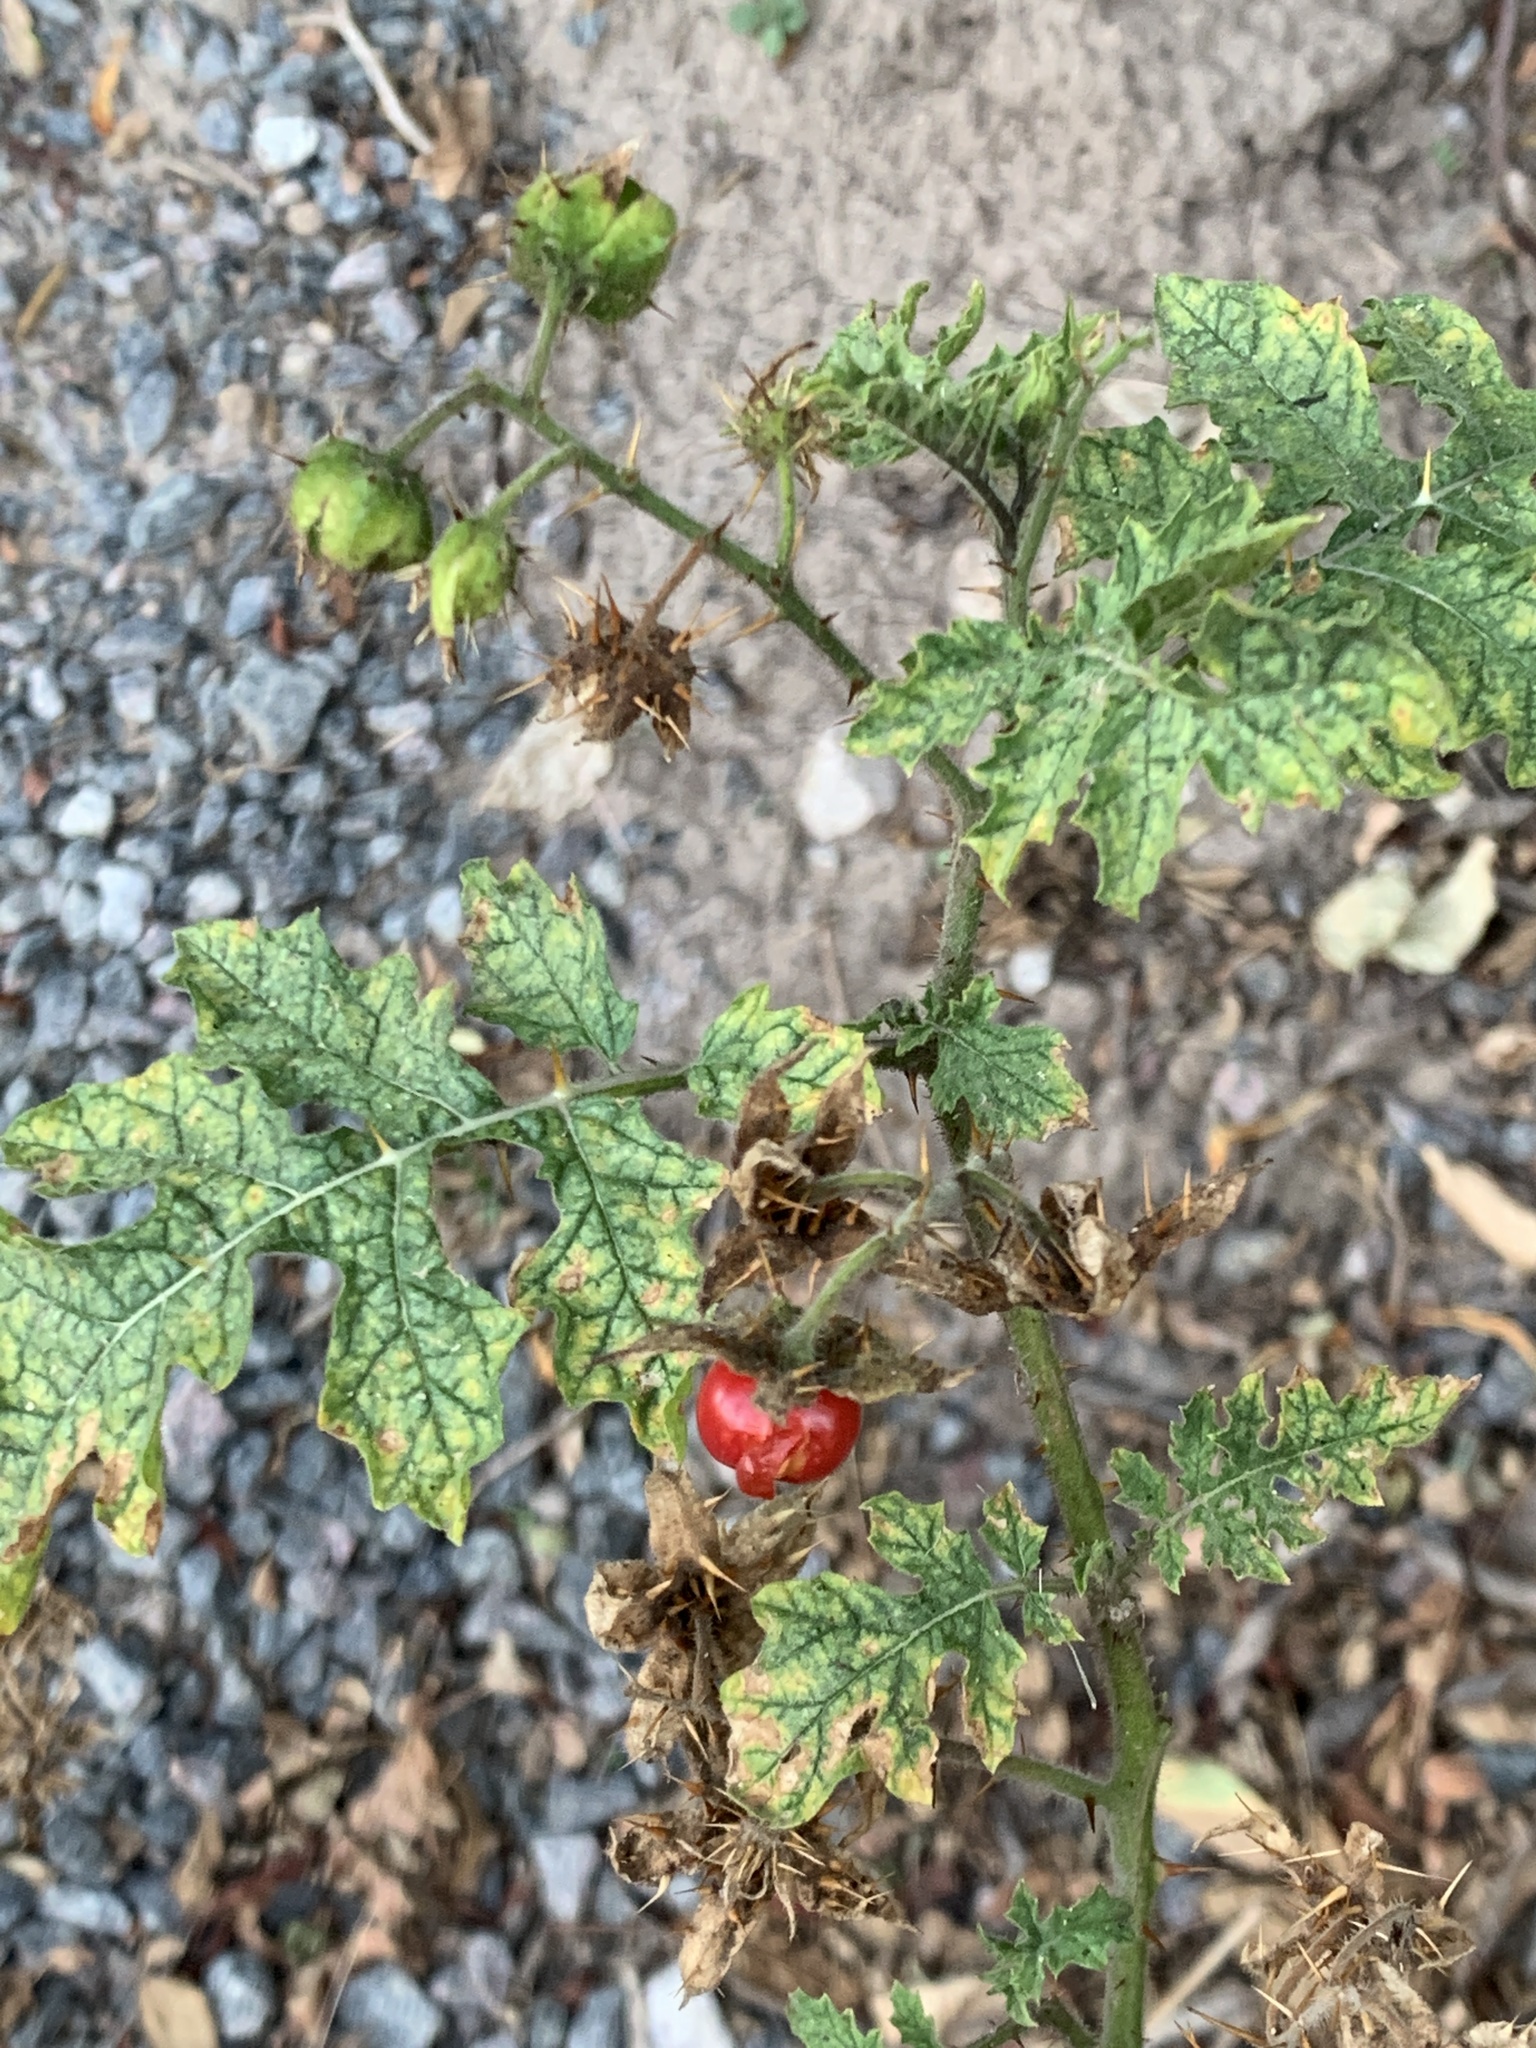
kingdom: Plantae
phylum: Tracheophyta
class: Magnoliopsida
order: Solanales
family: Solanaceae
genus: Solanum
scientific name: Solanum sisymbriifolium
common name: Red buffalo-bur
